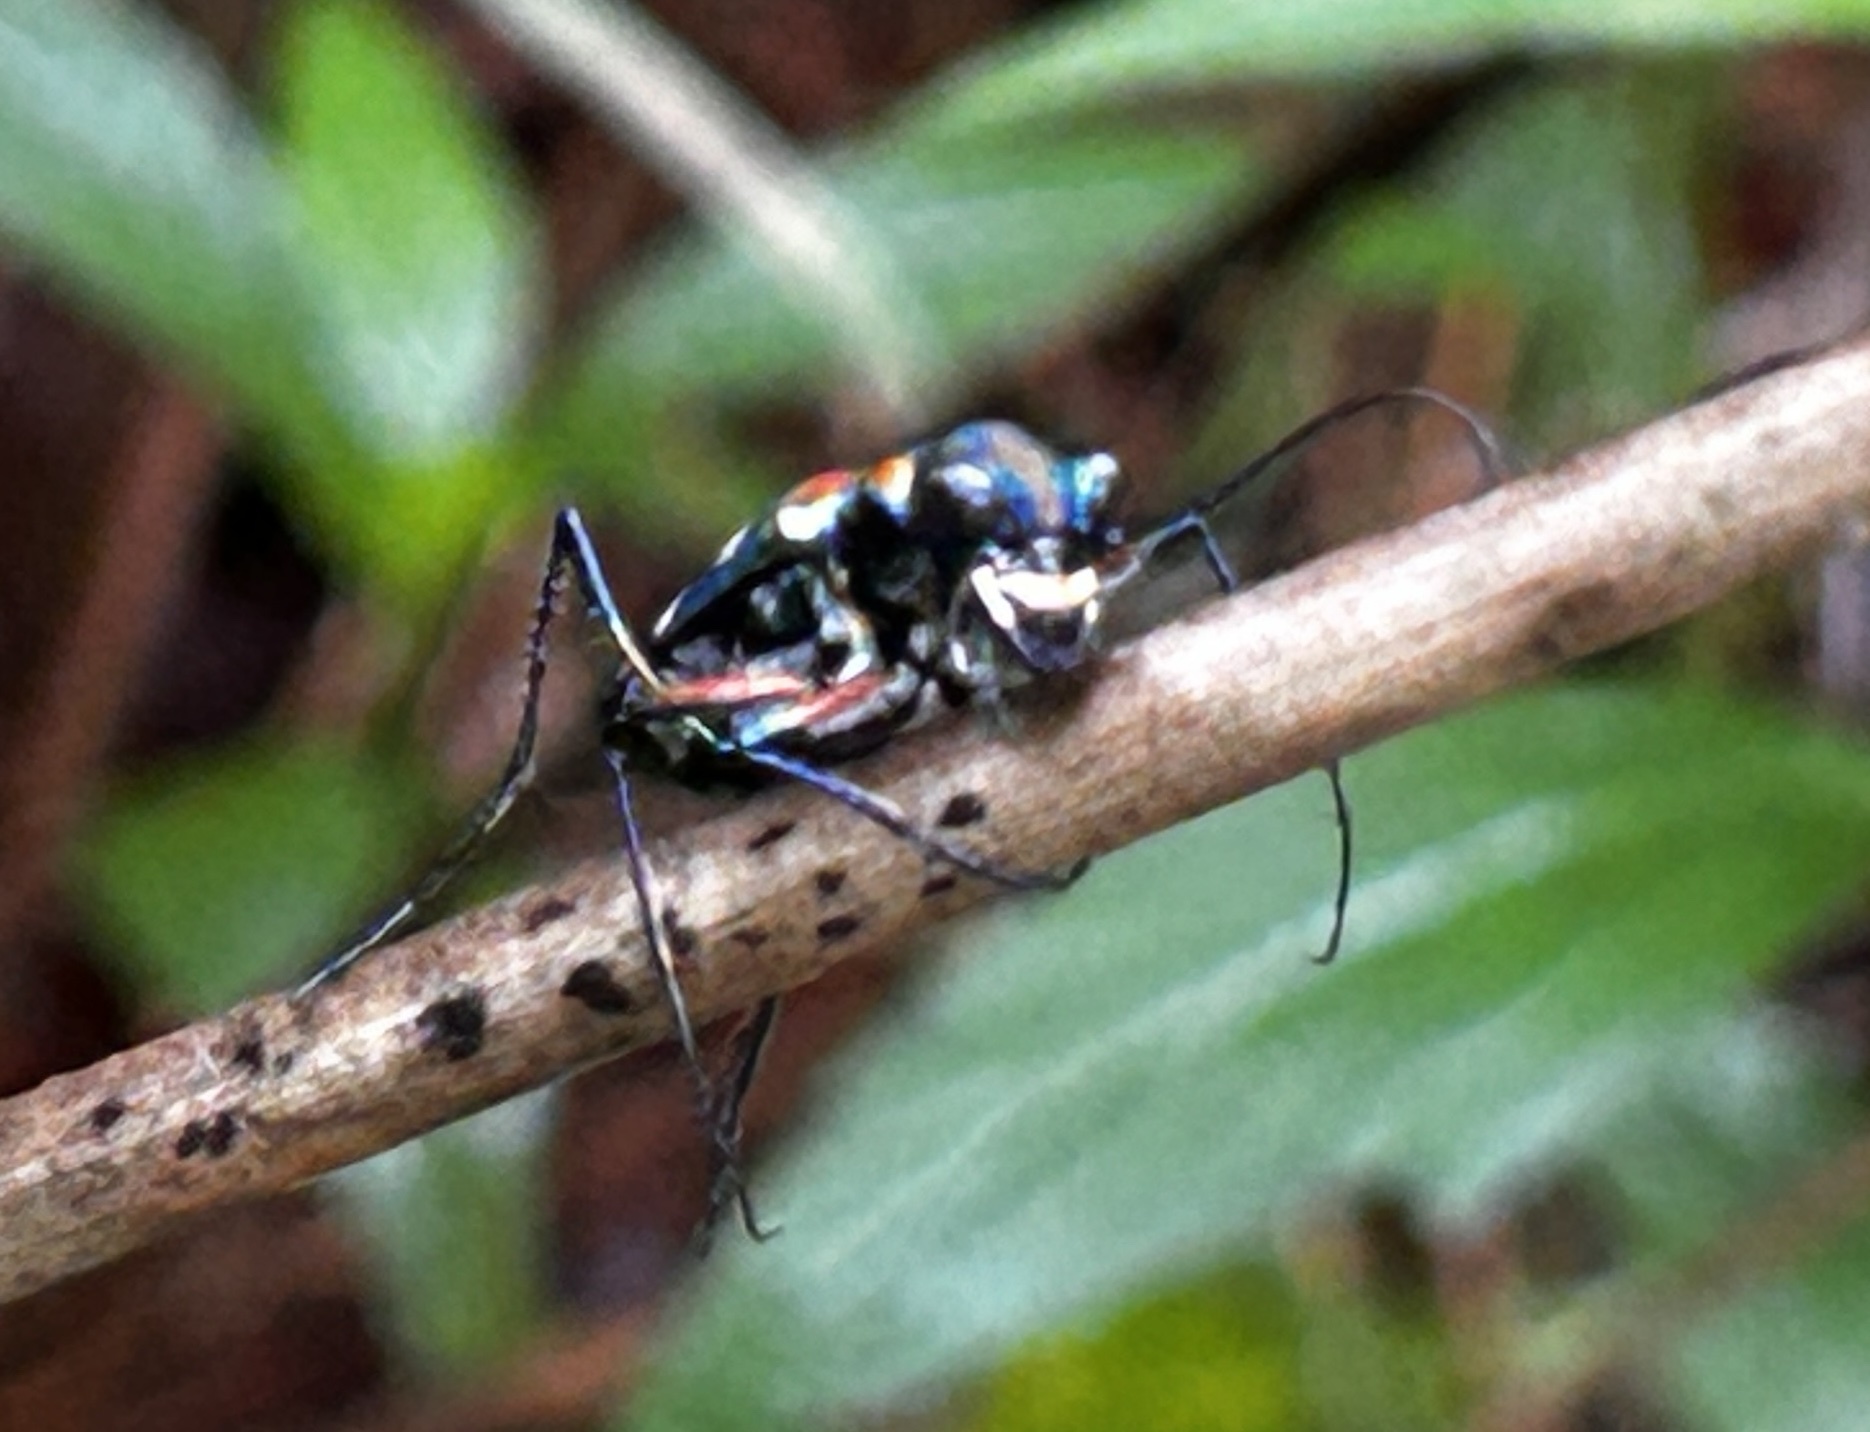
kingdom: Animalia
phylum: Arthropoda
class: Insecta
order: Coleoptera
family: Carabidae
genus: Cicindela
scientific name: Cicindela aurulenta
